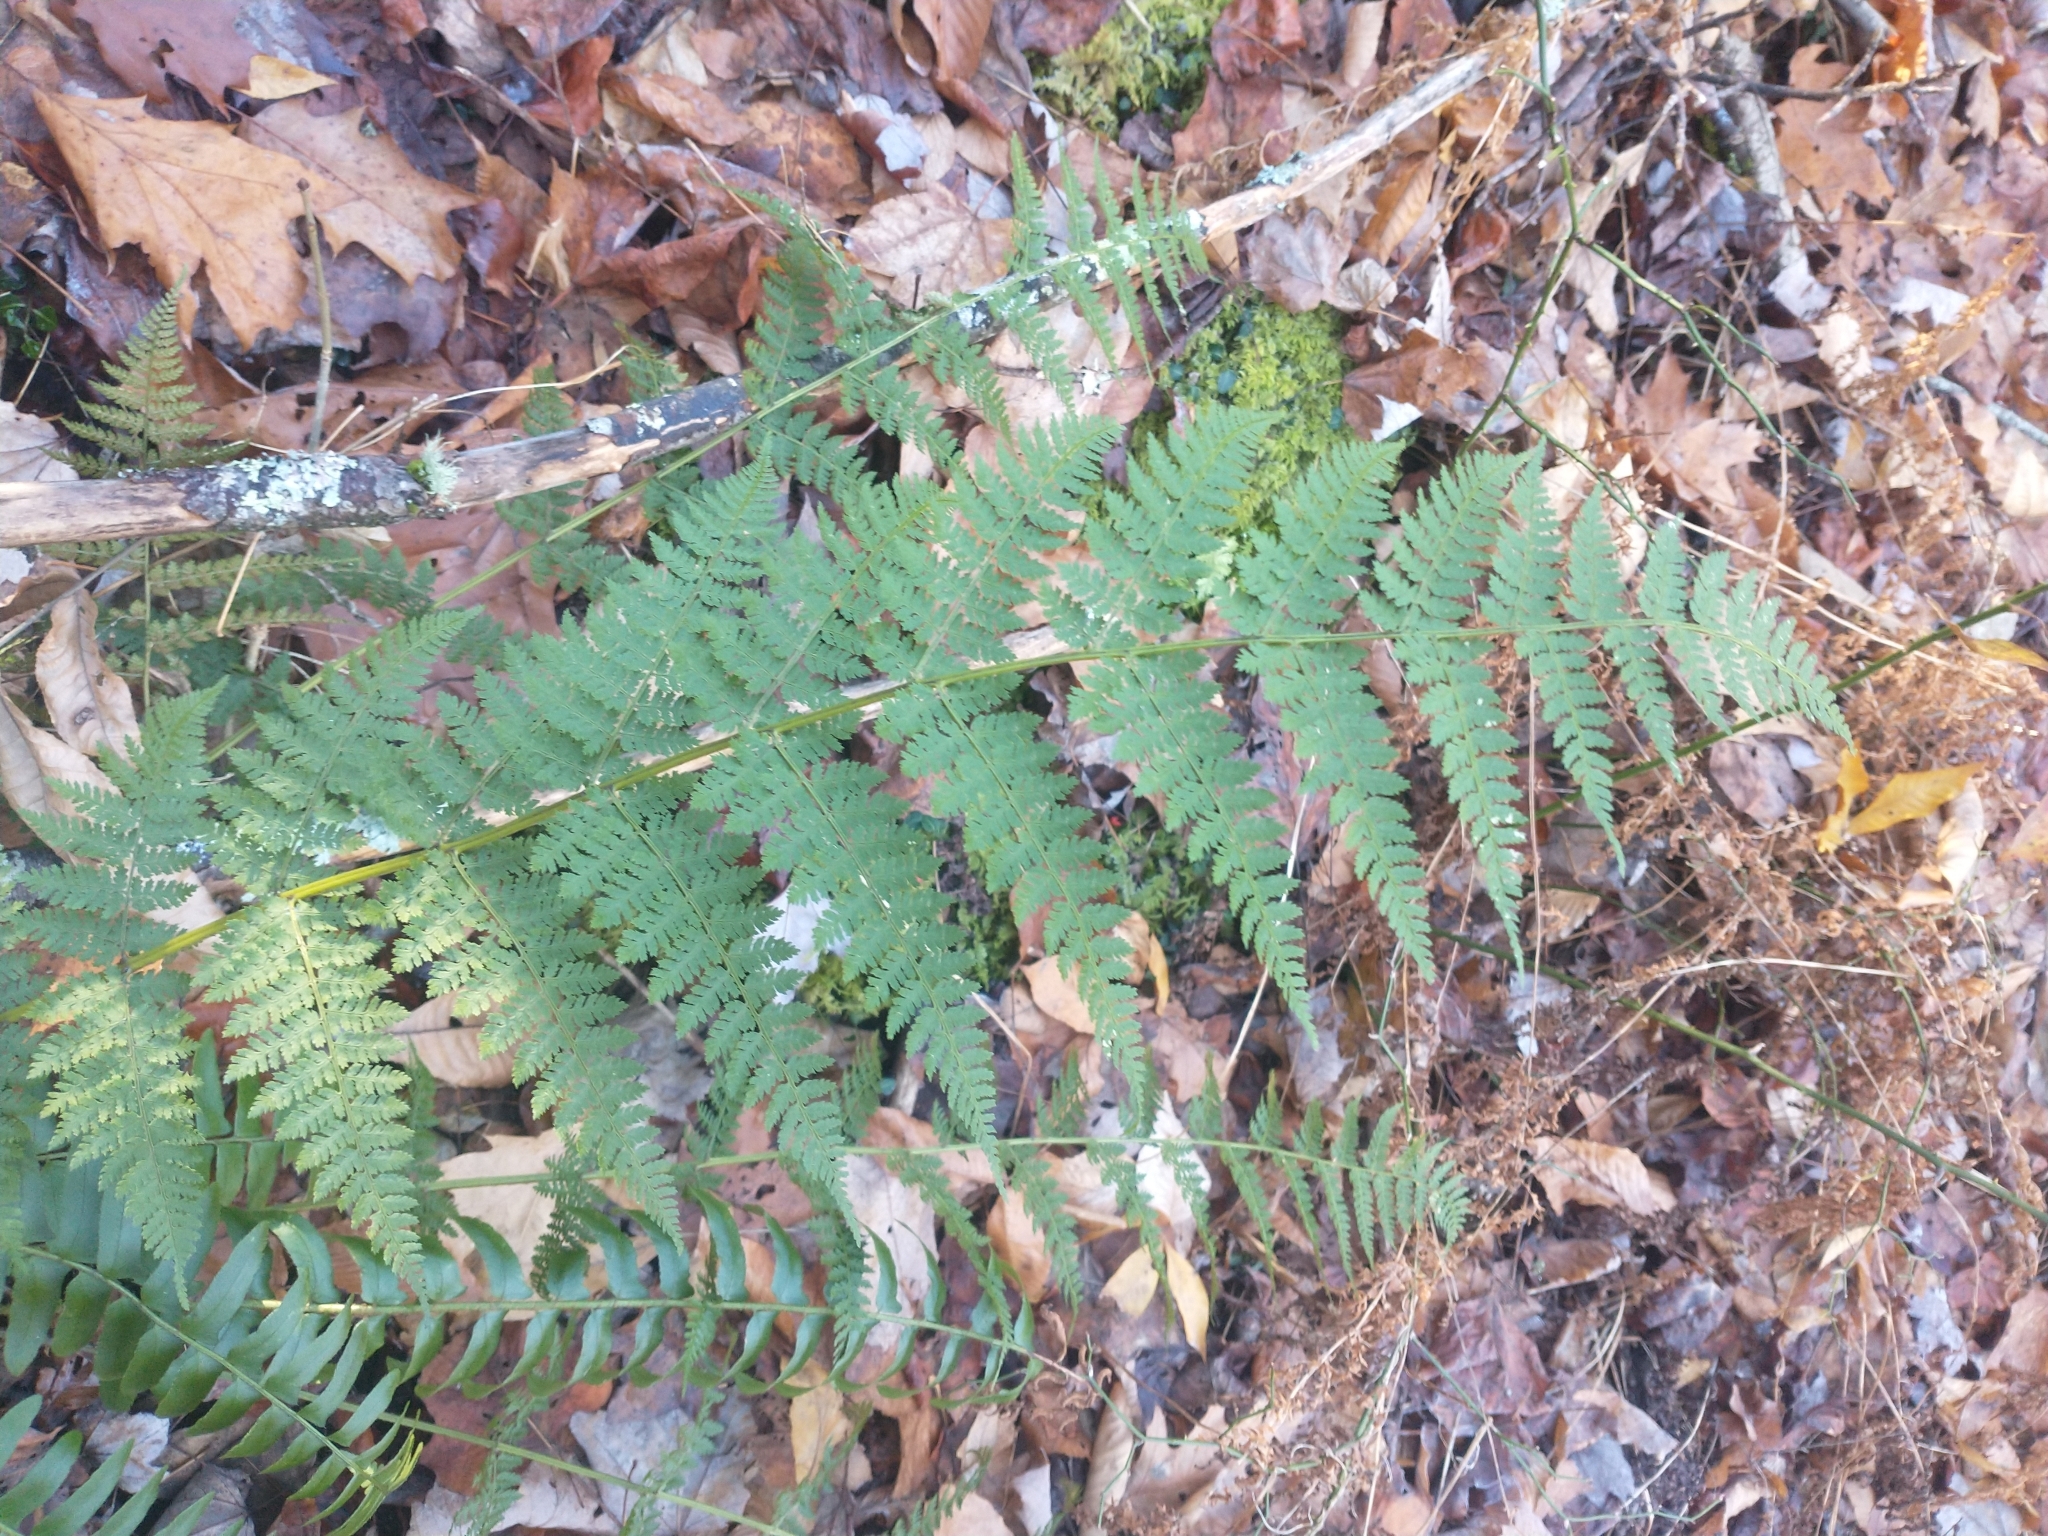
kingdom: Plantae
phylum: Tracheophyta
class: Polypodiopsida
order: Polypodiales
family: Dryopteridaceae
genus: Dryopteris
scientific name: Dryopteris intermedia
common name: Evergreen wood fern
